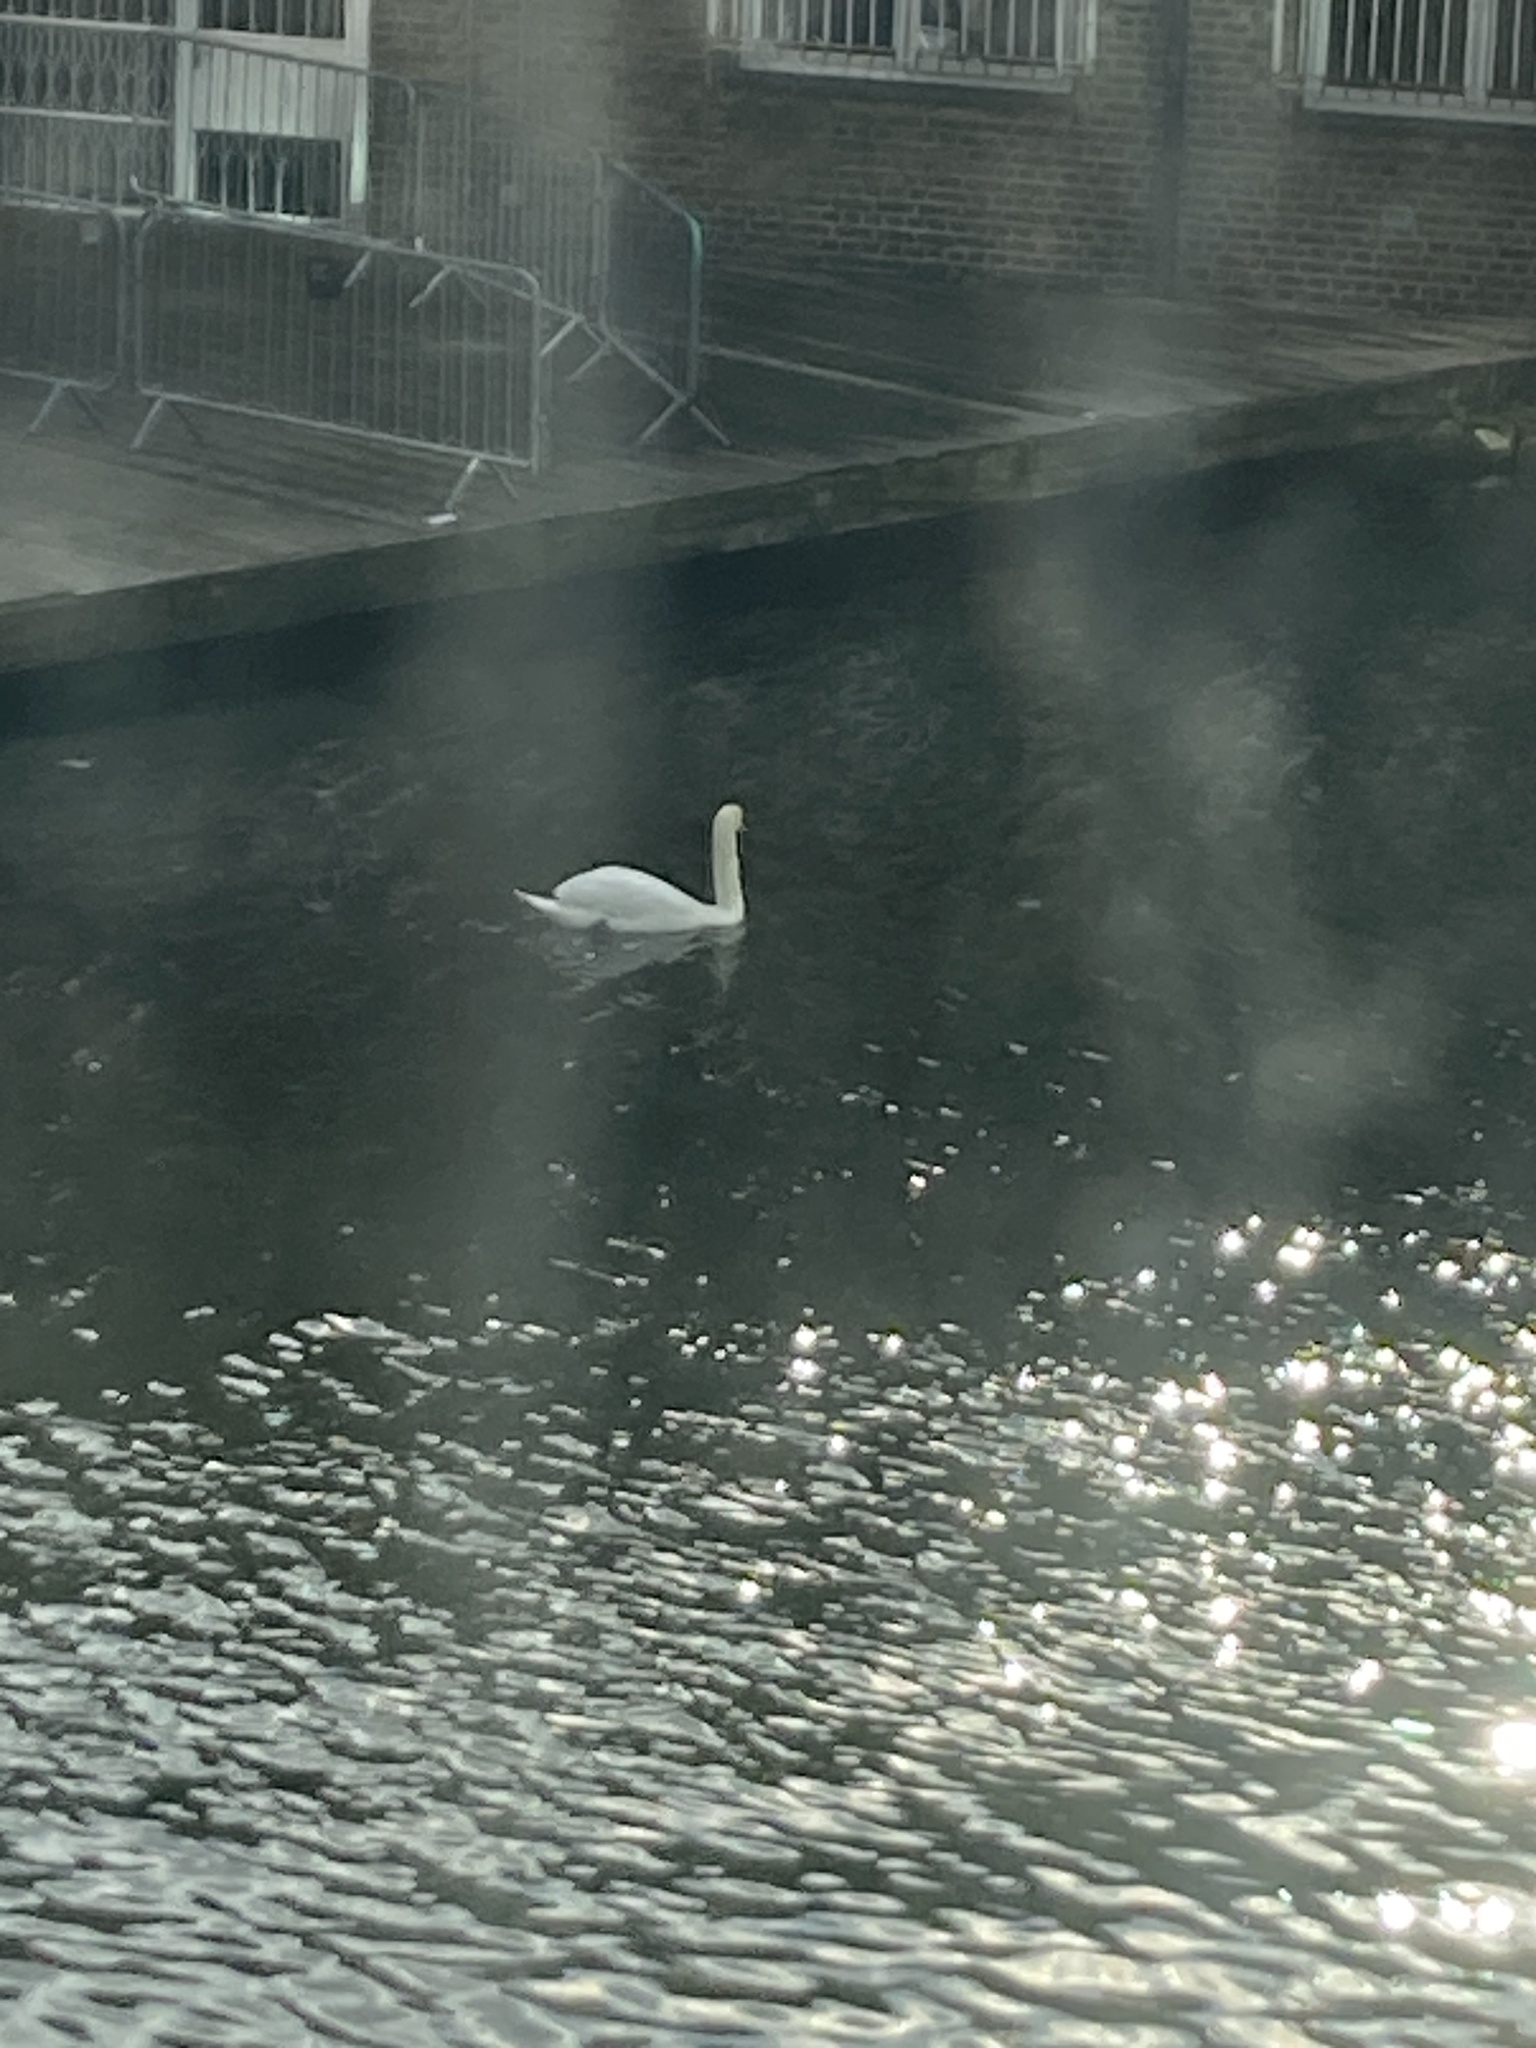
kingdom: Animalia
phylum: Chordata
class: Aves
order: Anseriformes
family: Anatidae
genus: Cygnus
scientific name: Cygnus olor
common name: Mute swan
